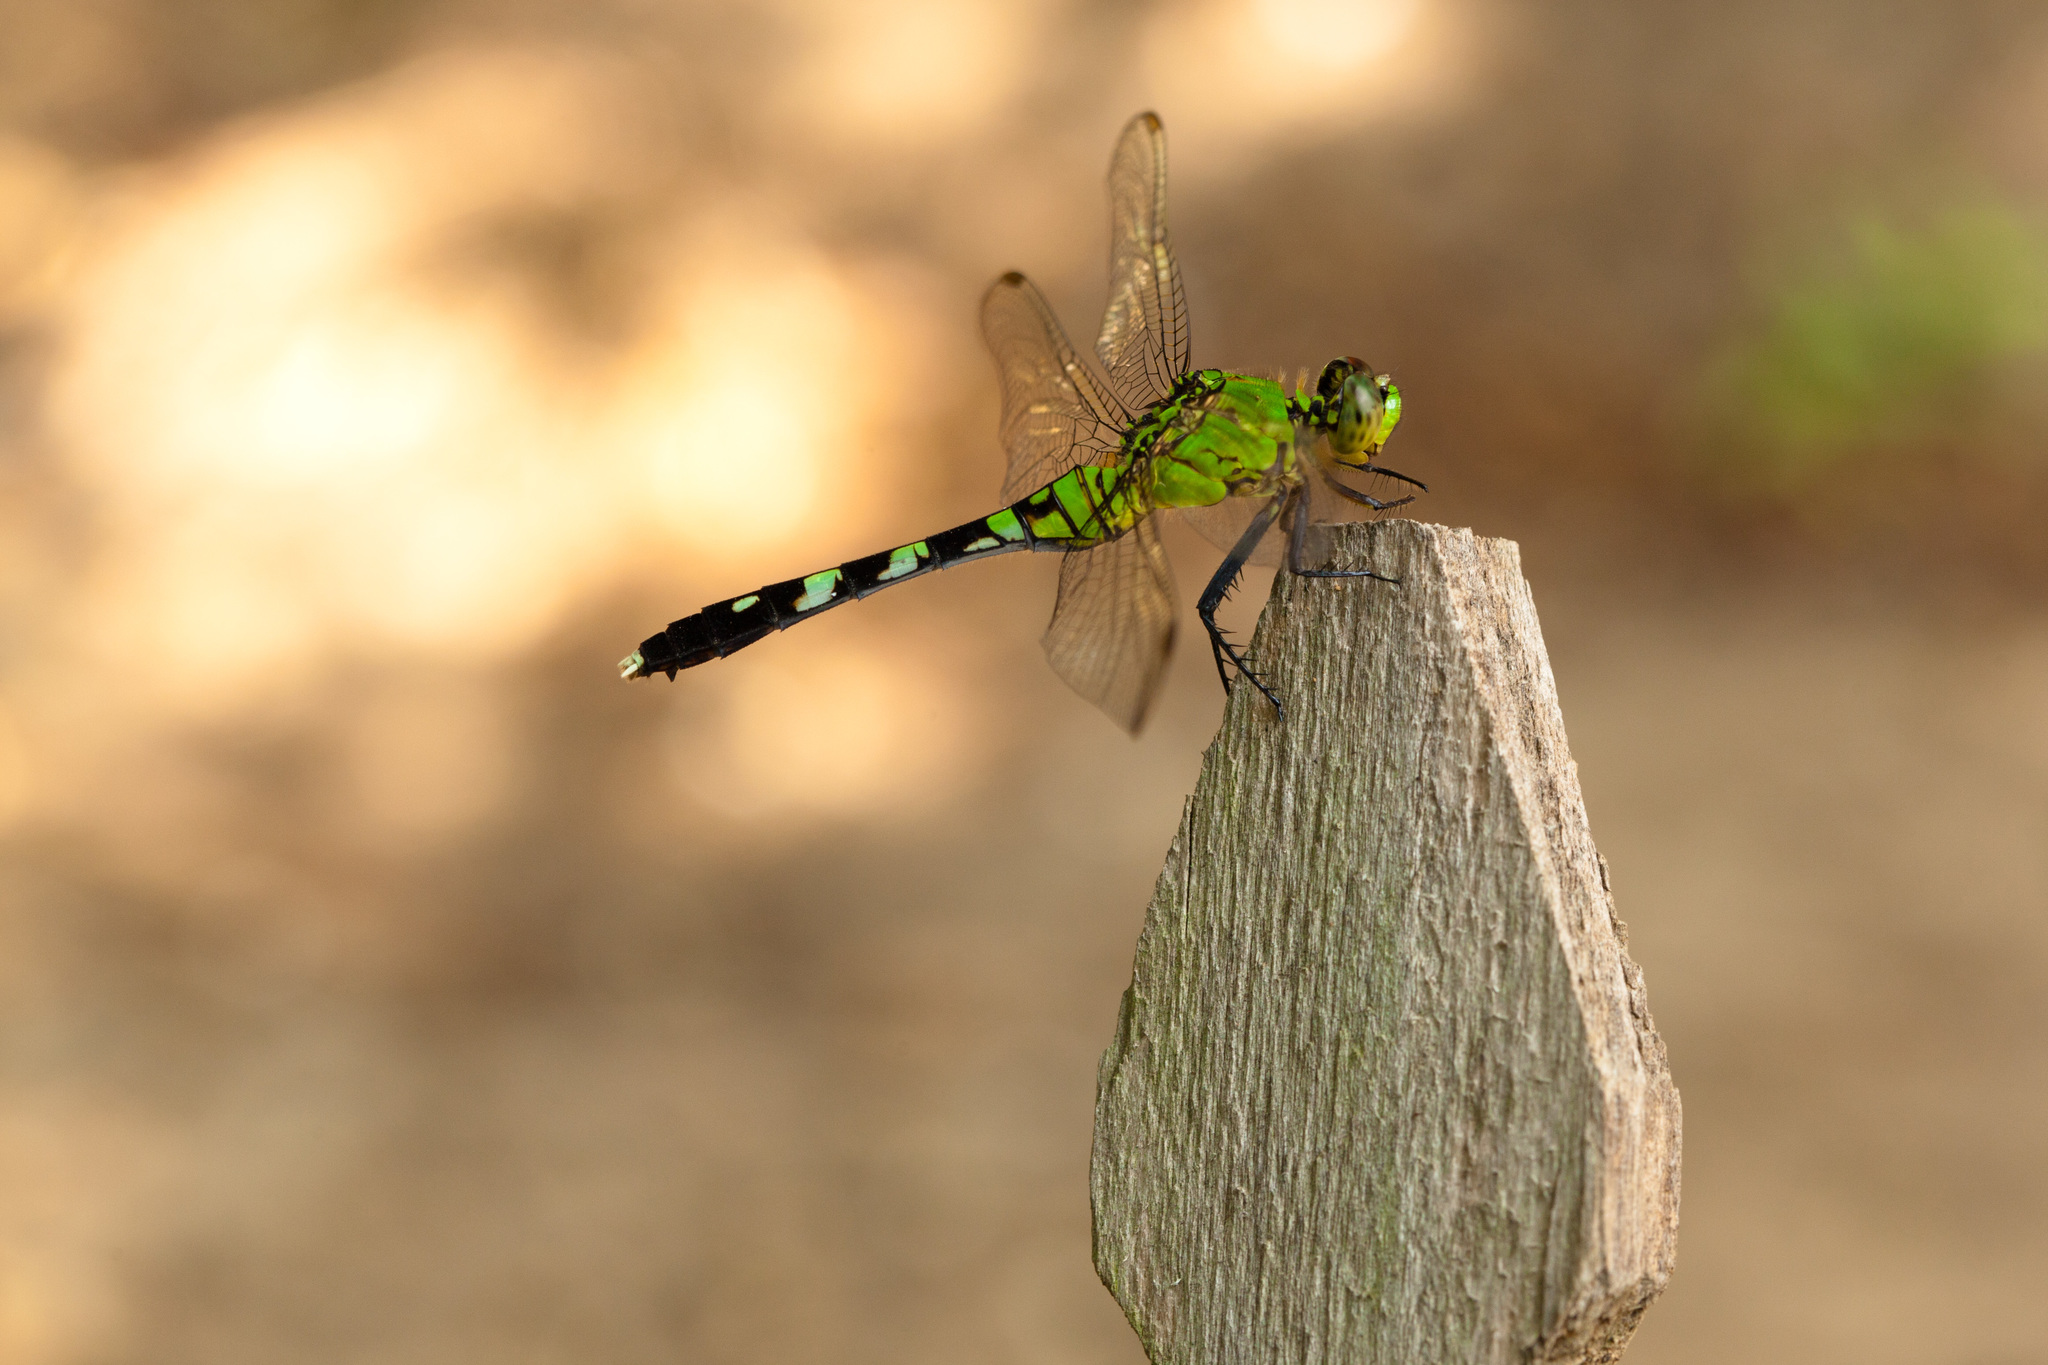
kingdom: Animalia
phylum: Arthropoda
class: Insecta
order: Odonata
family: Libellulidae
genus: Erythemis
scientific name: Erythemis simplicicollis
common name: Eastern pondhawk
